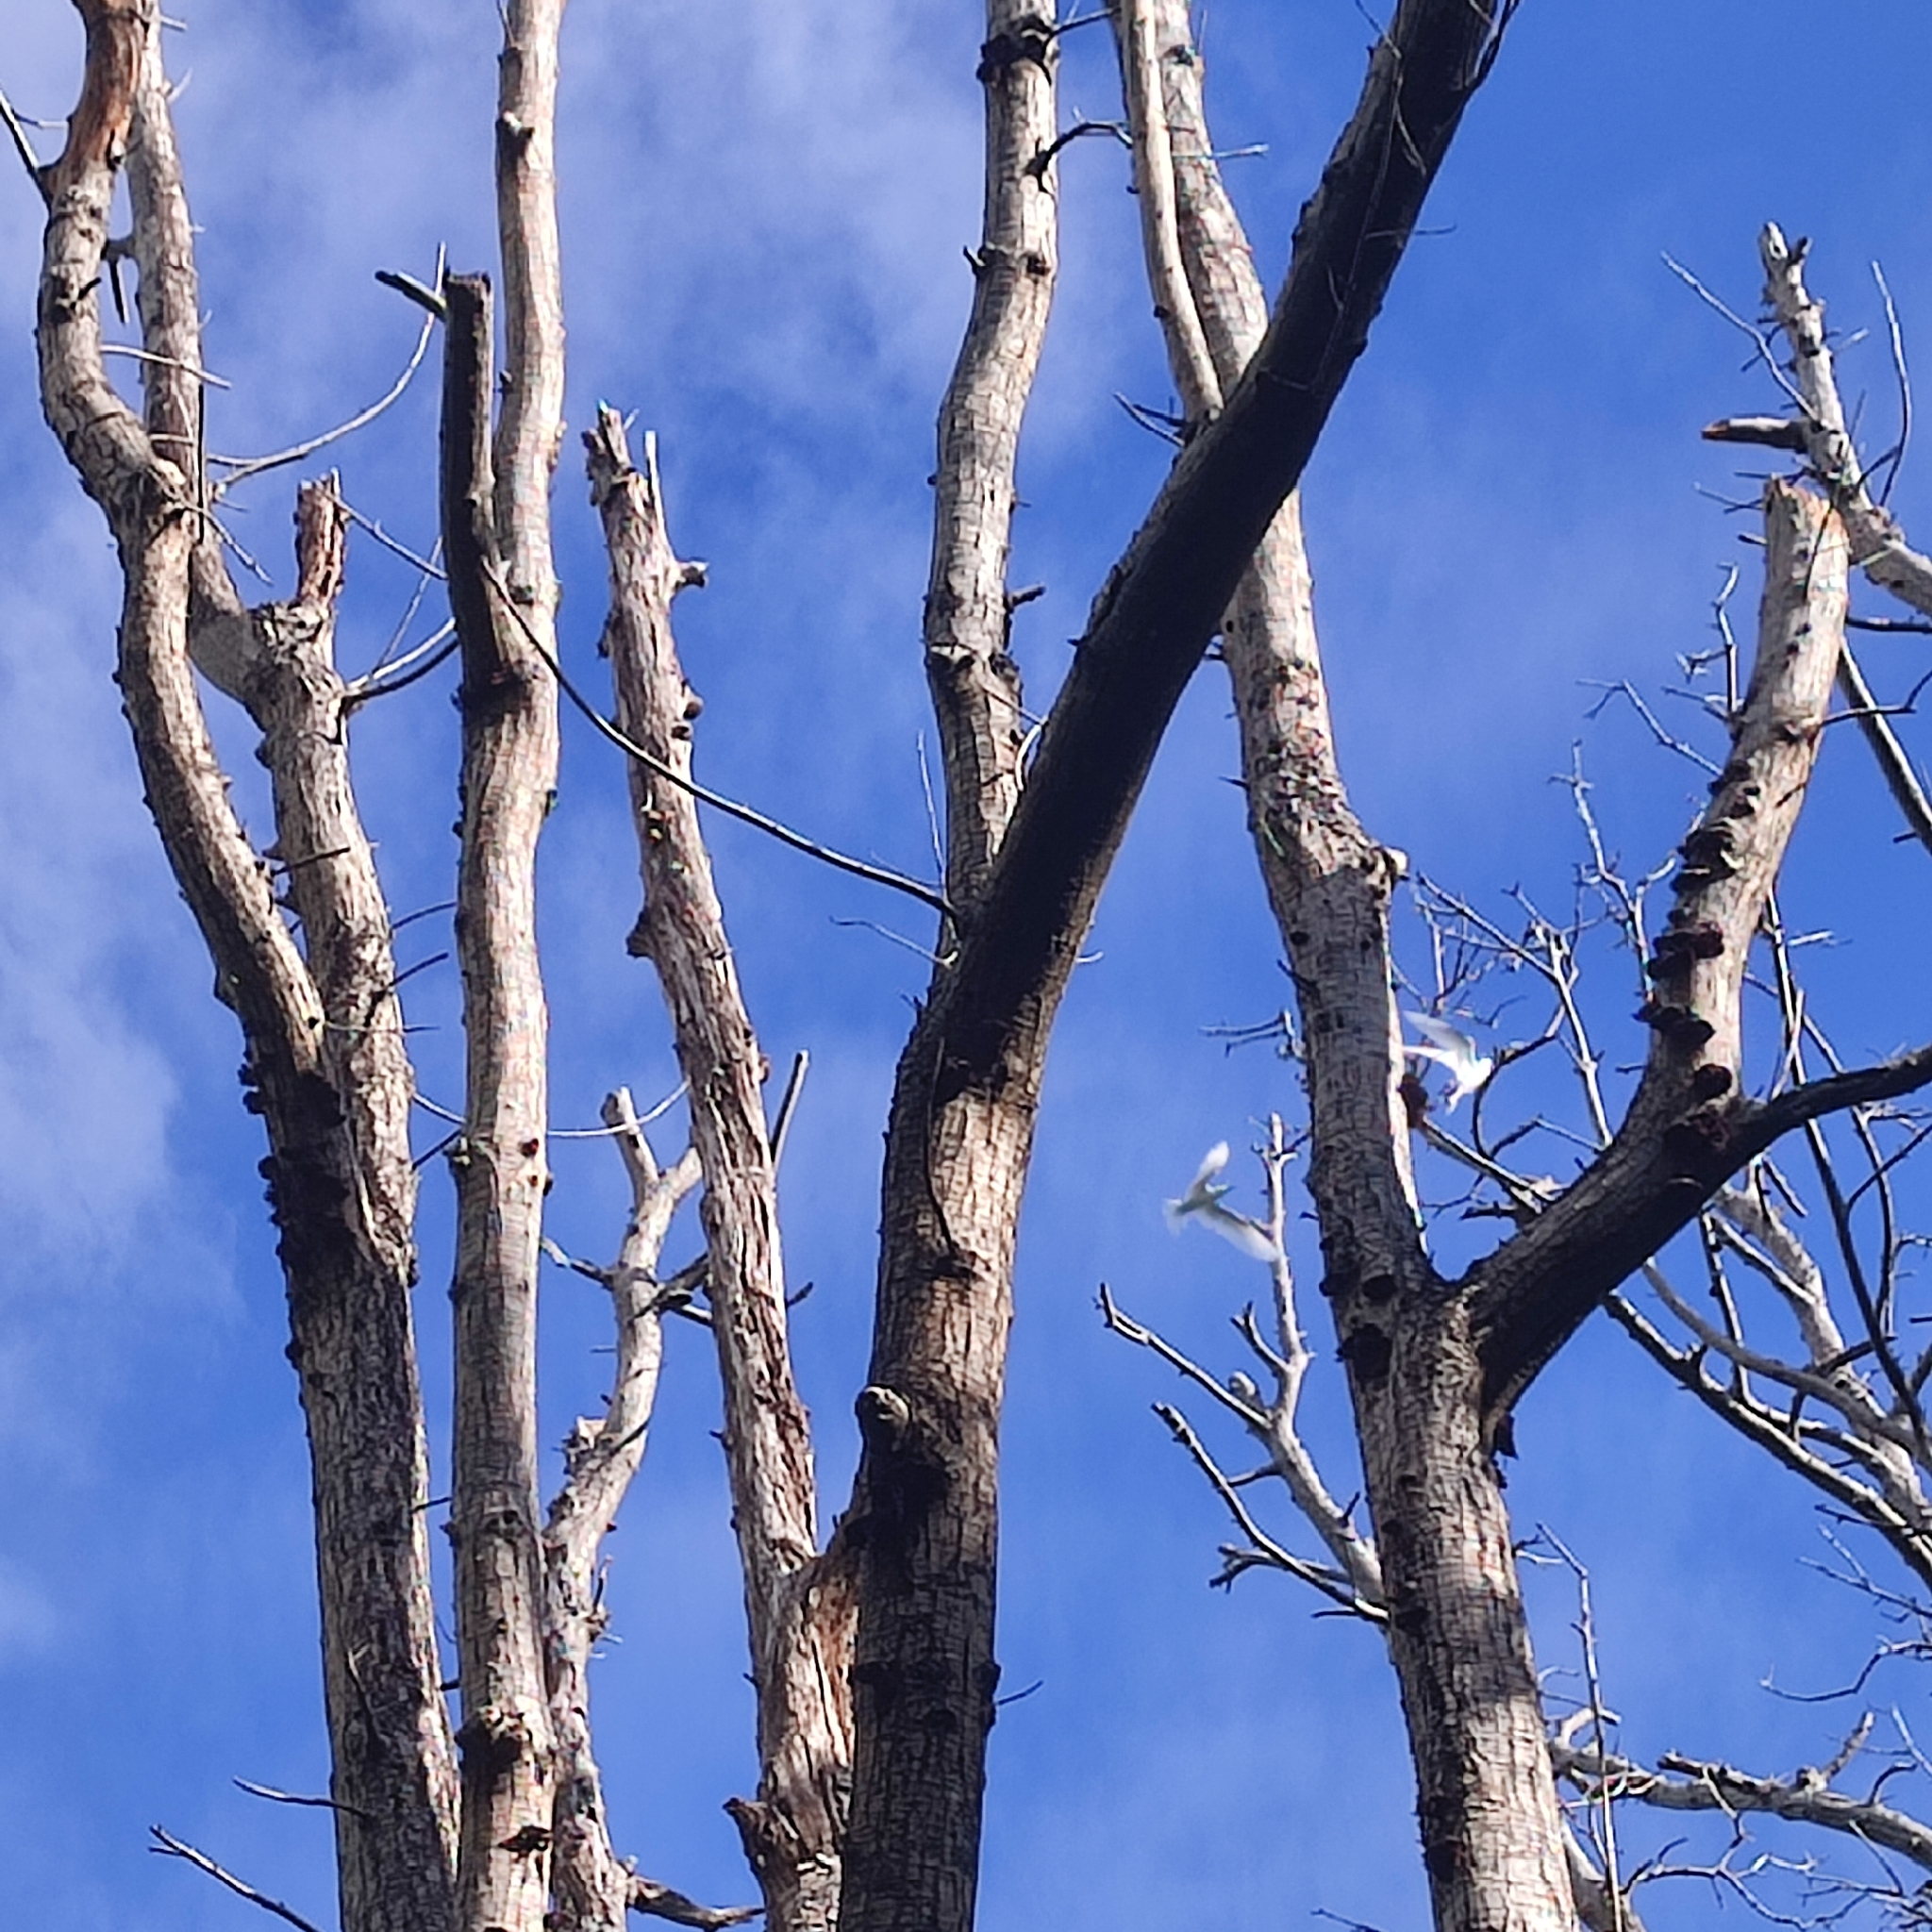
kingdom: Animalia
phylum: Chordata
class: Aves
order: Charadriiformes
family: Laridae
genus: Gygis
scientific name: Gygis alba
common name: White tern
